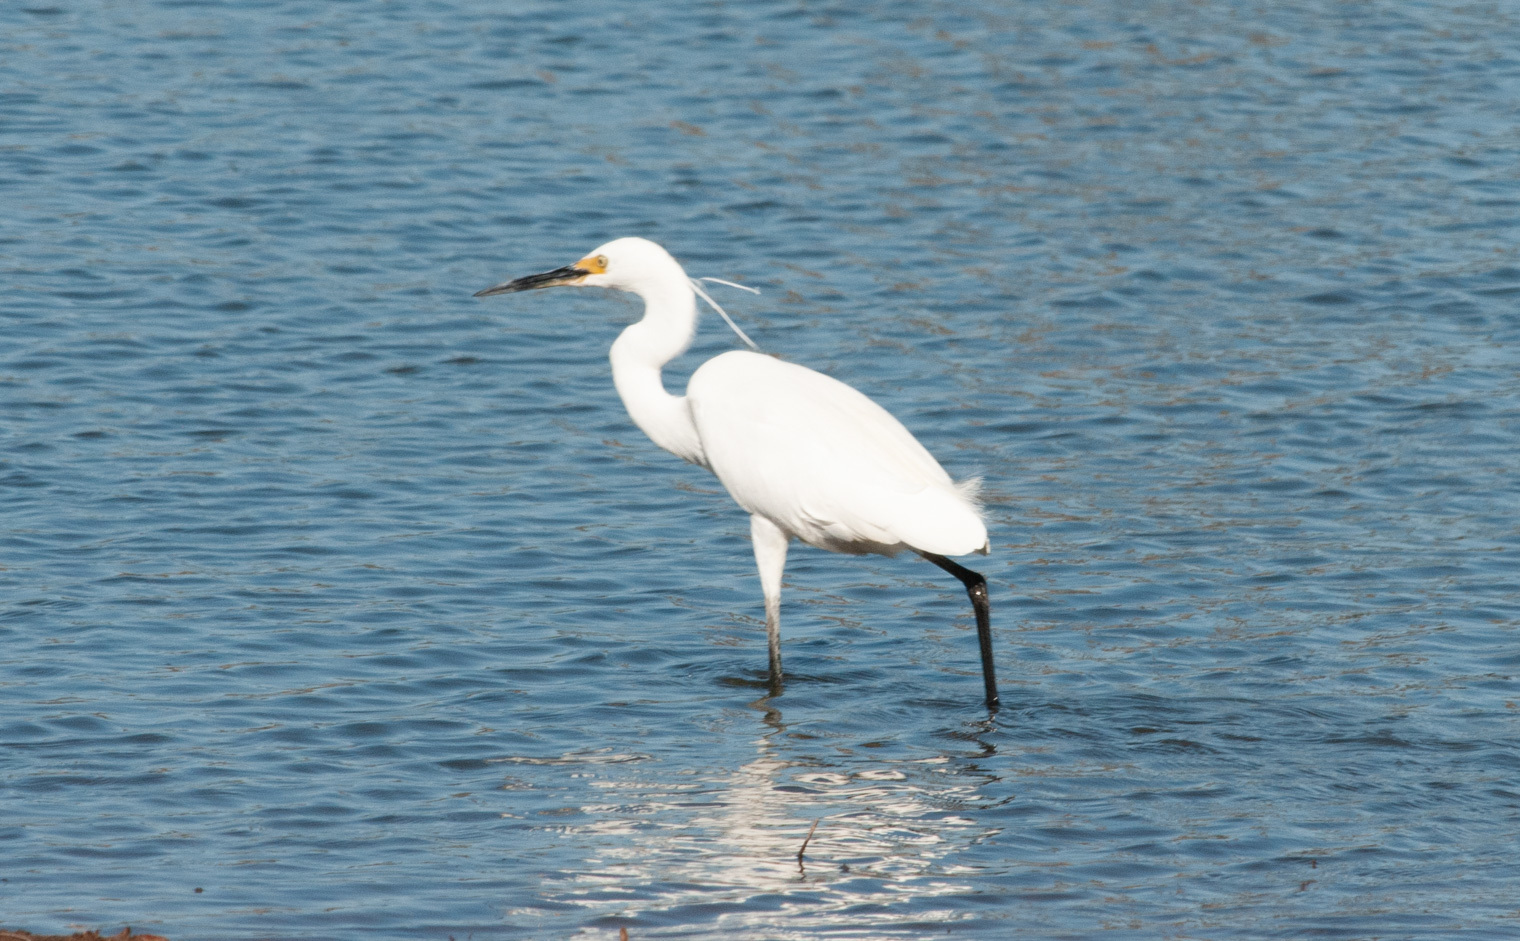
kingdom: Animalia
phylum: Chordata
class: Aves
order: Pelecaniformes
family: Ardeidae
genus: Egretta
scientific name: Egretta garzetta
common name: Little egret
